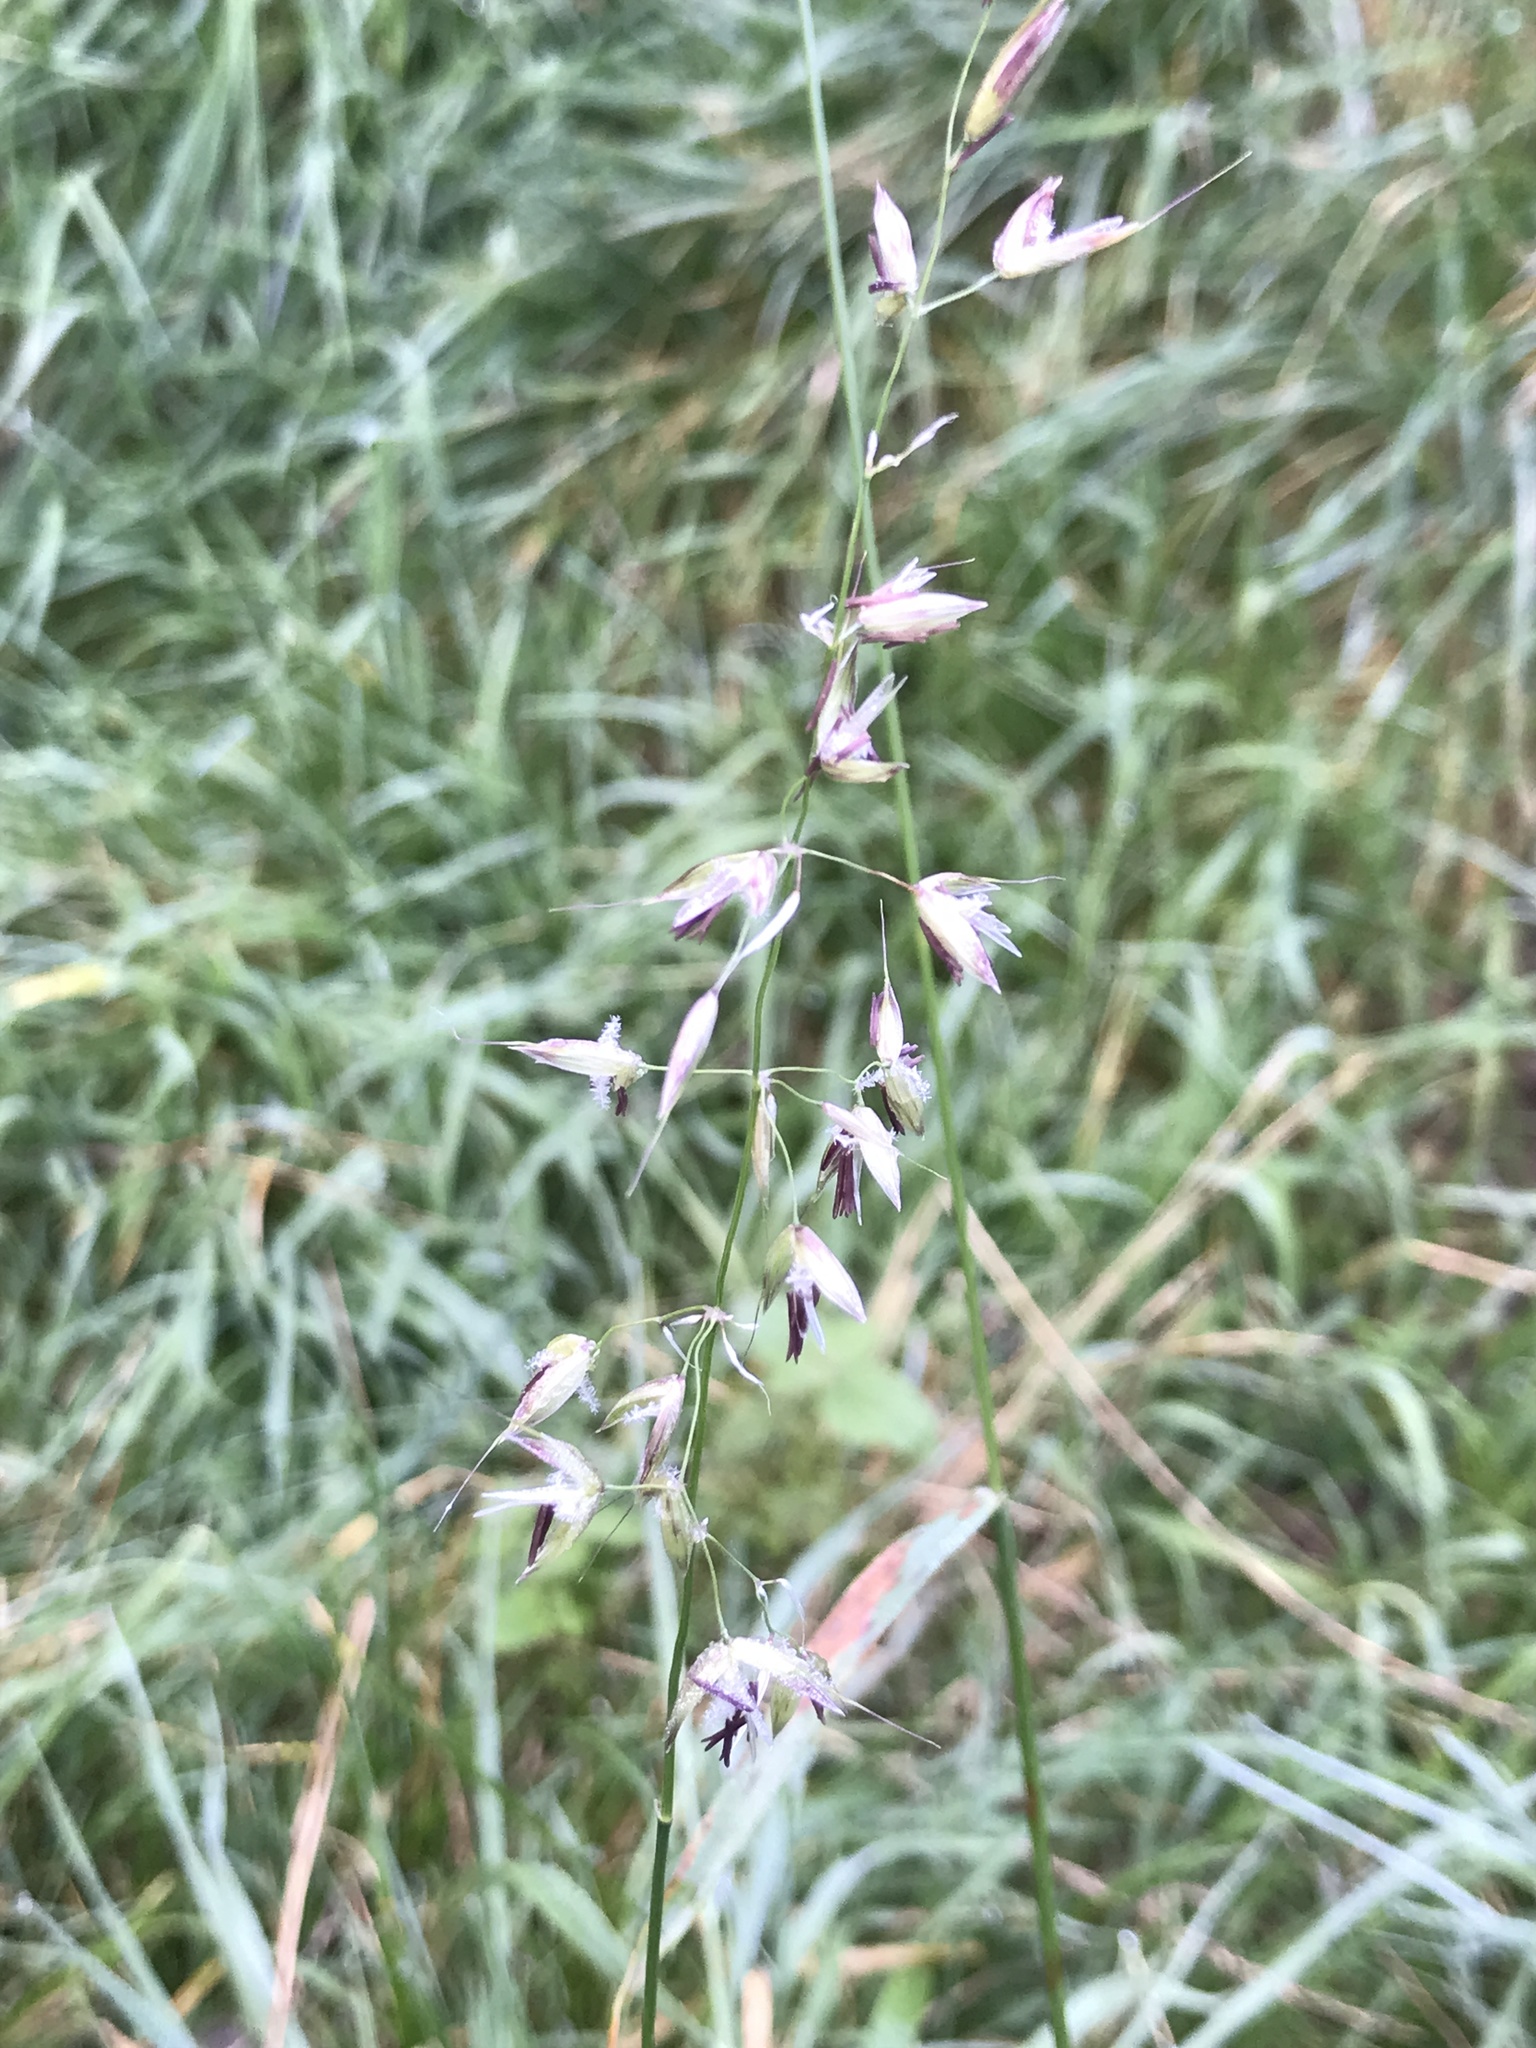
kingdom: Plantae
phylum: Tracheophyta
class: Liliopsida
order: Poales
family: Poaceae
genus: Arrhenatherum
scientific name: Arrhenatherum elatius
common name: Tall oatgrass
